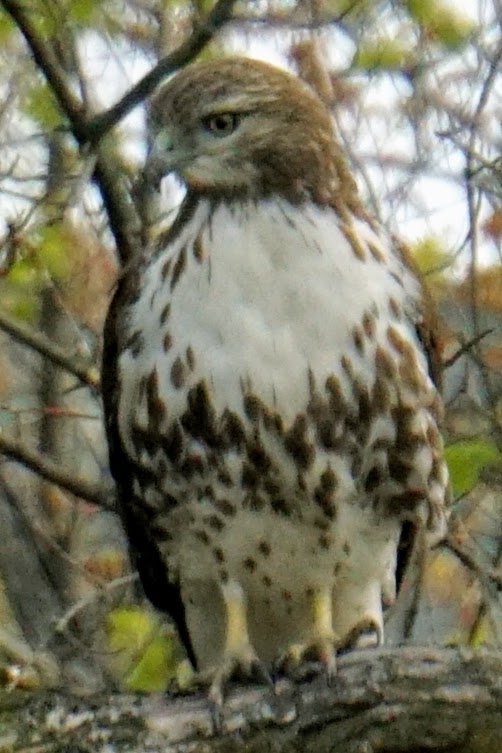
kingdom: Animalia
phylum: Chordata
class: Aves
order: Accipitriformes
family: Accipitridae
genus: Buteo
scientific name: Buteo jamaicensis
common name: Red-tailed hawk
